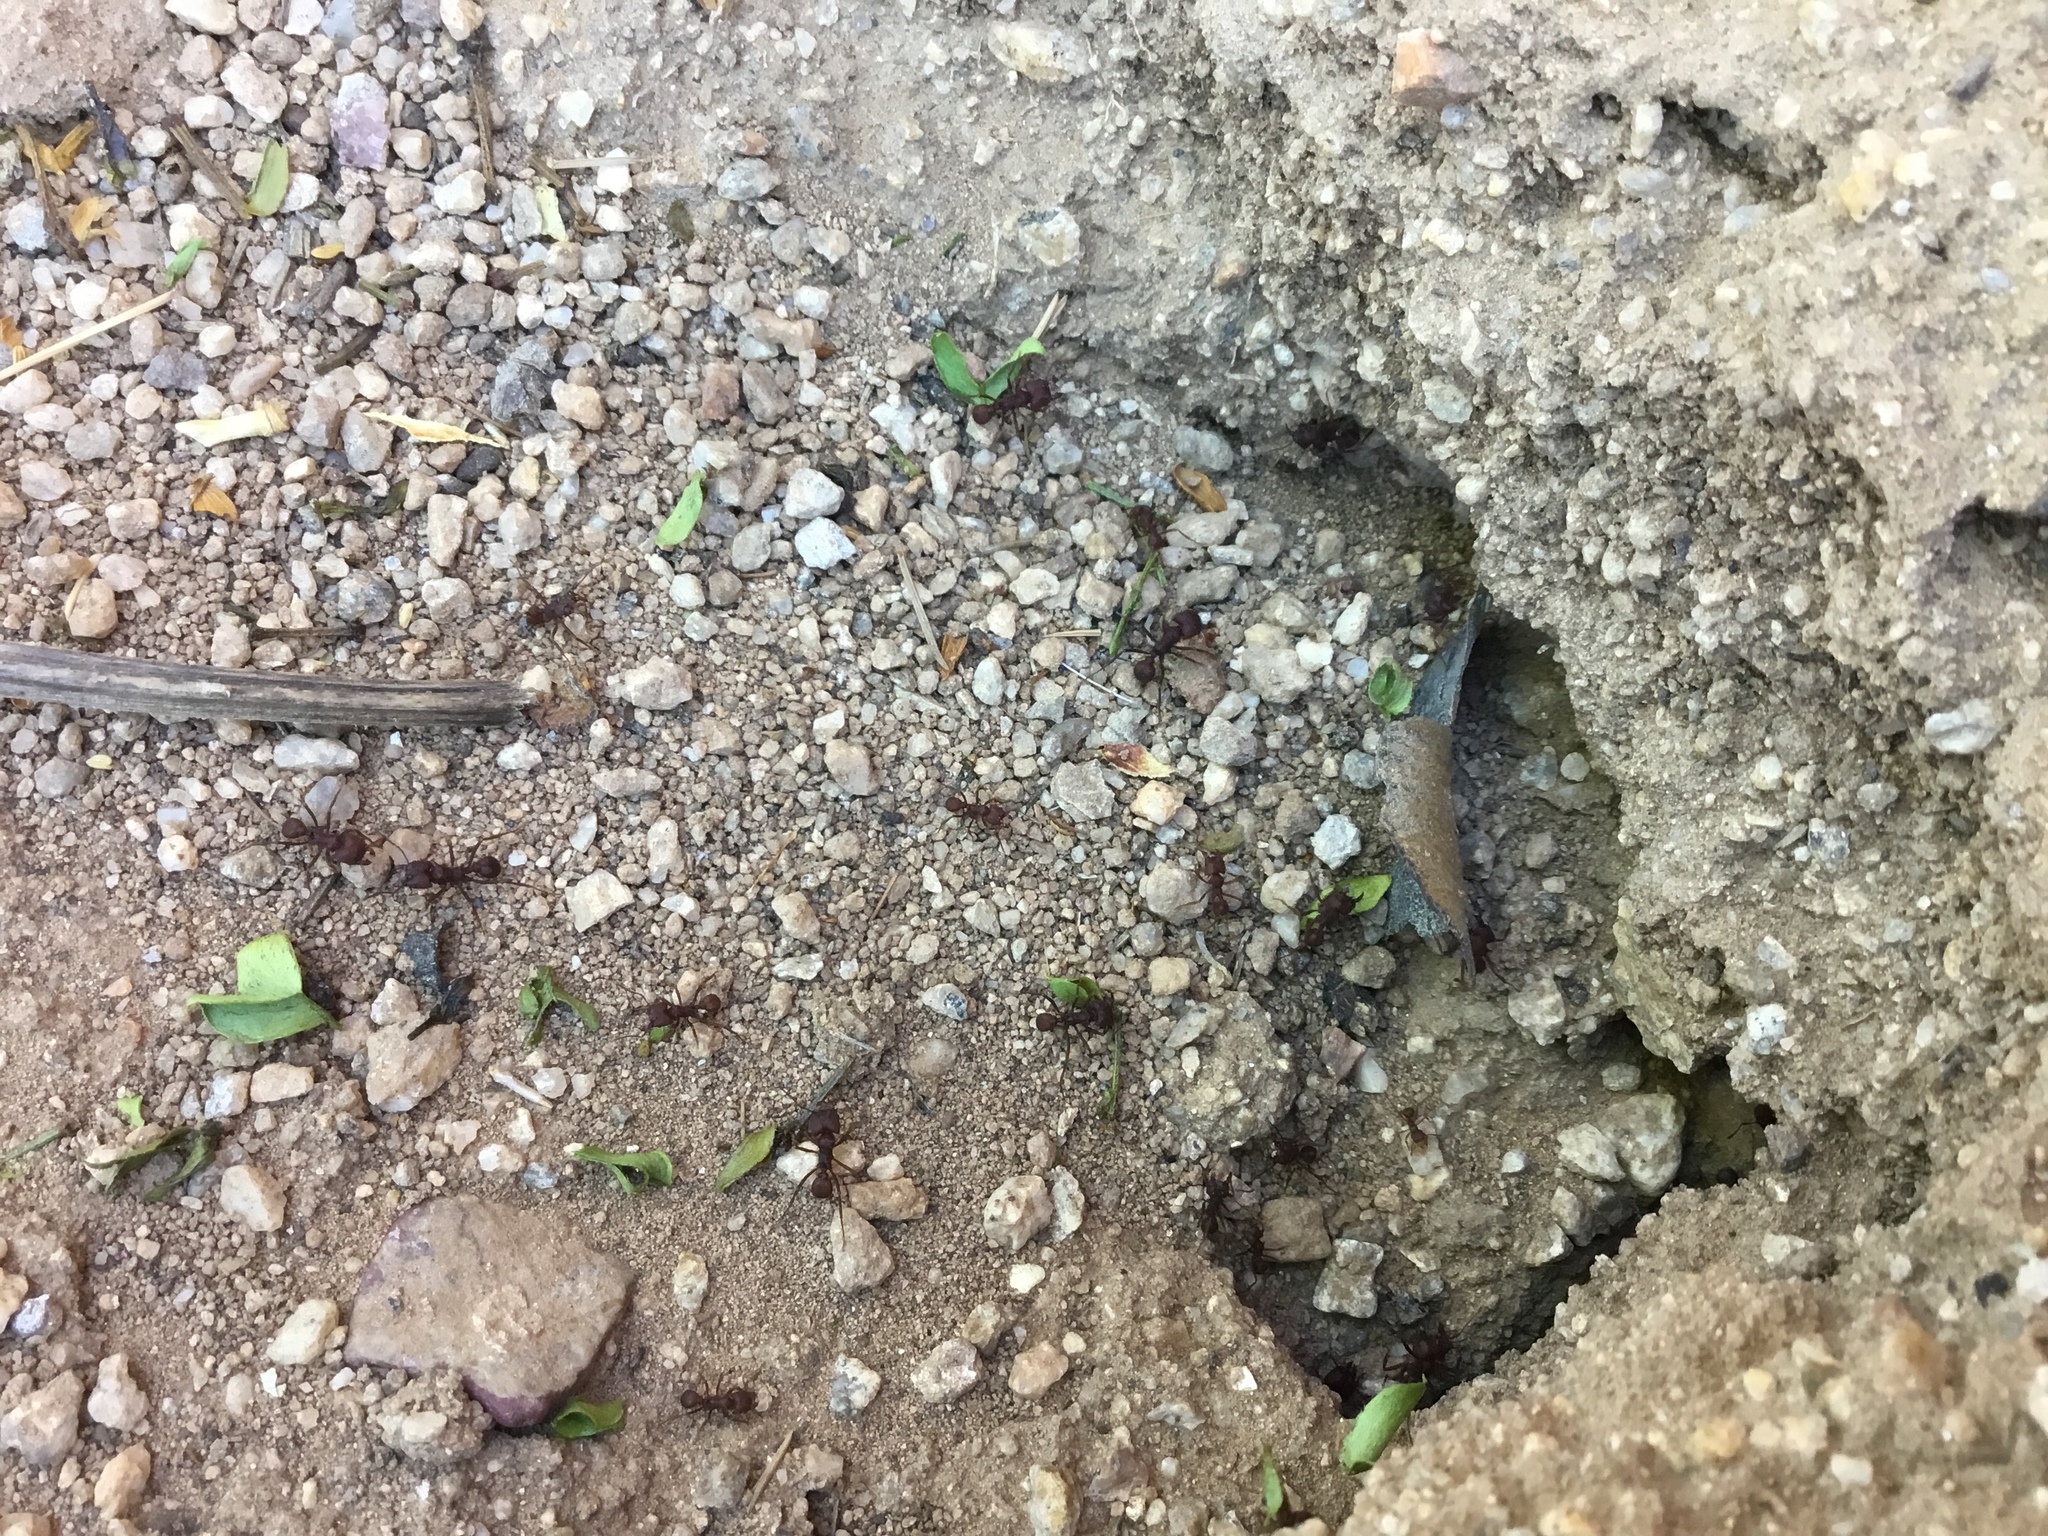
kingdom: Animalia
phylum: Arthropoda
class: Insecta
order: Hymenoptera
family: Formicidae
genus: Acromyrmex
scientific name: Acromyrmex versicolor
